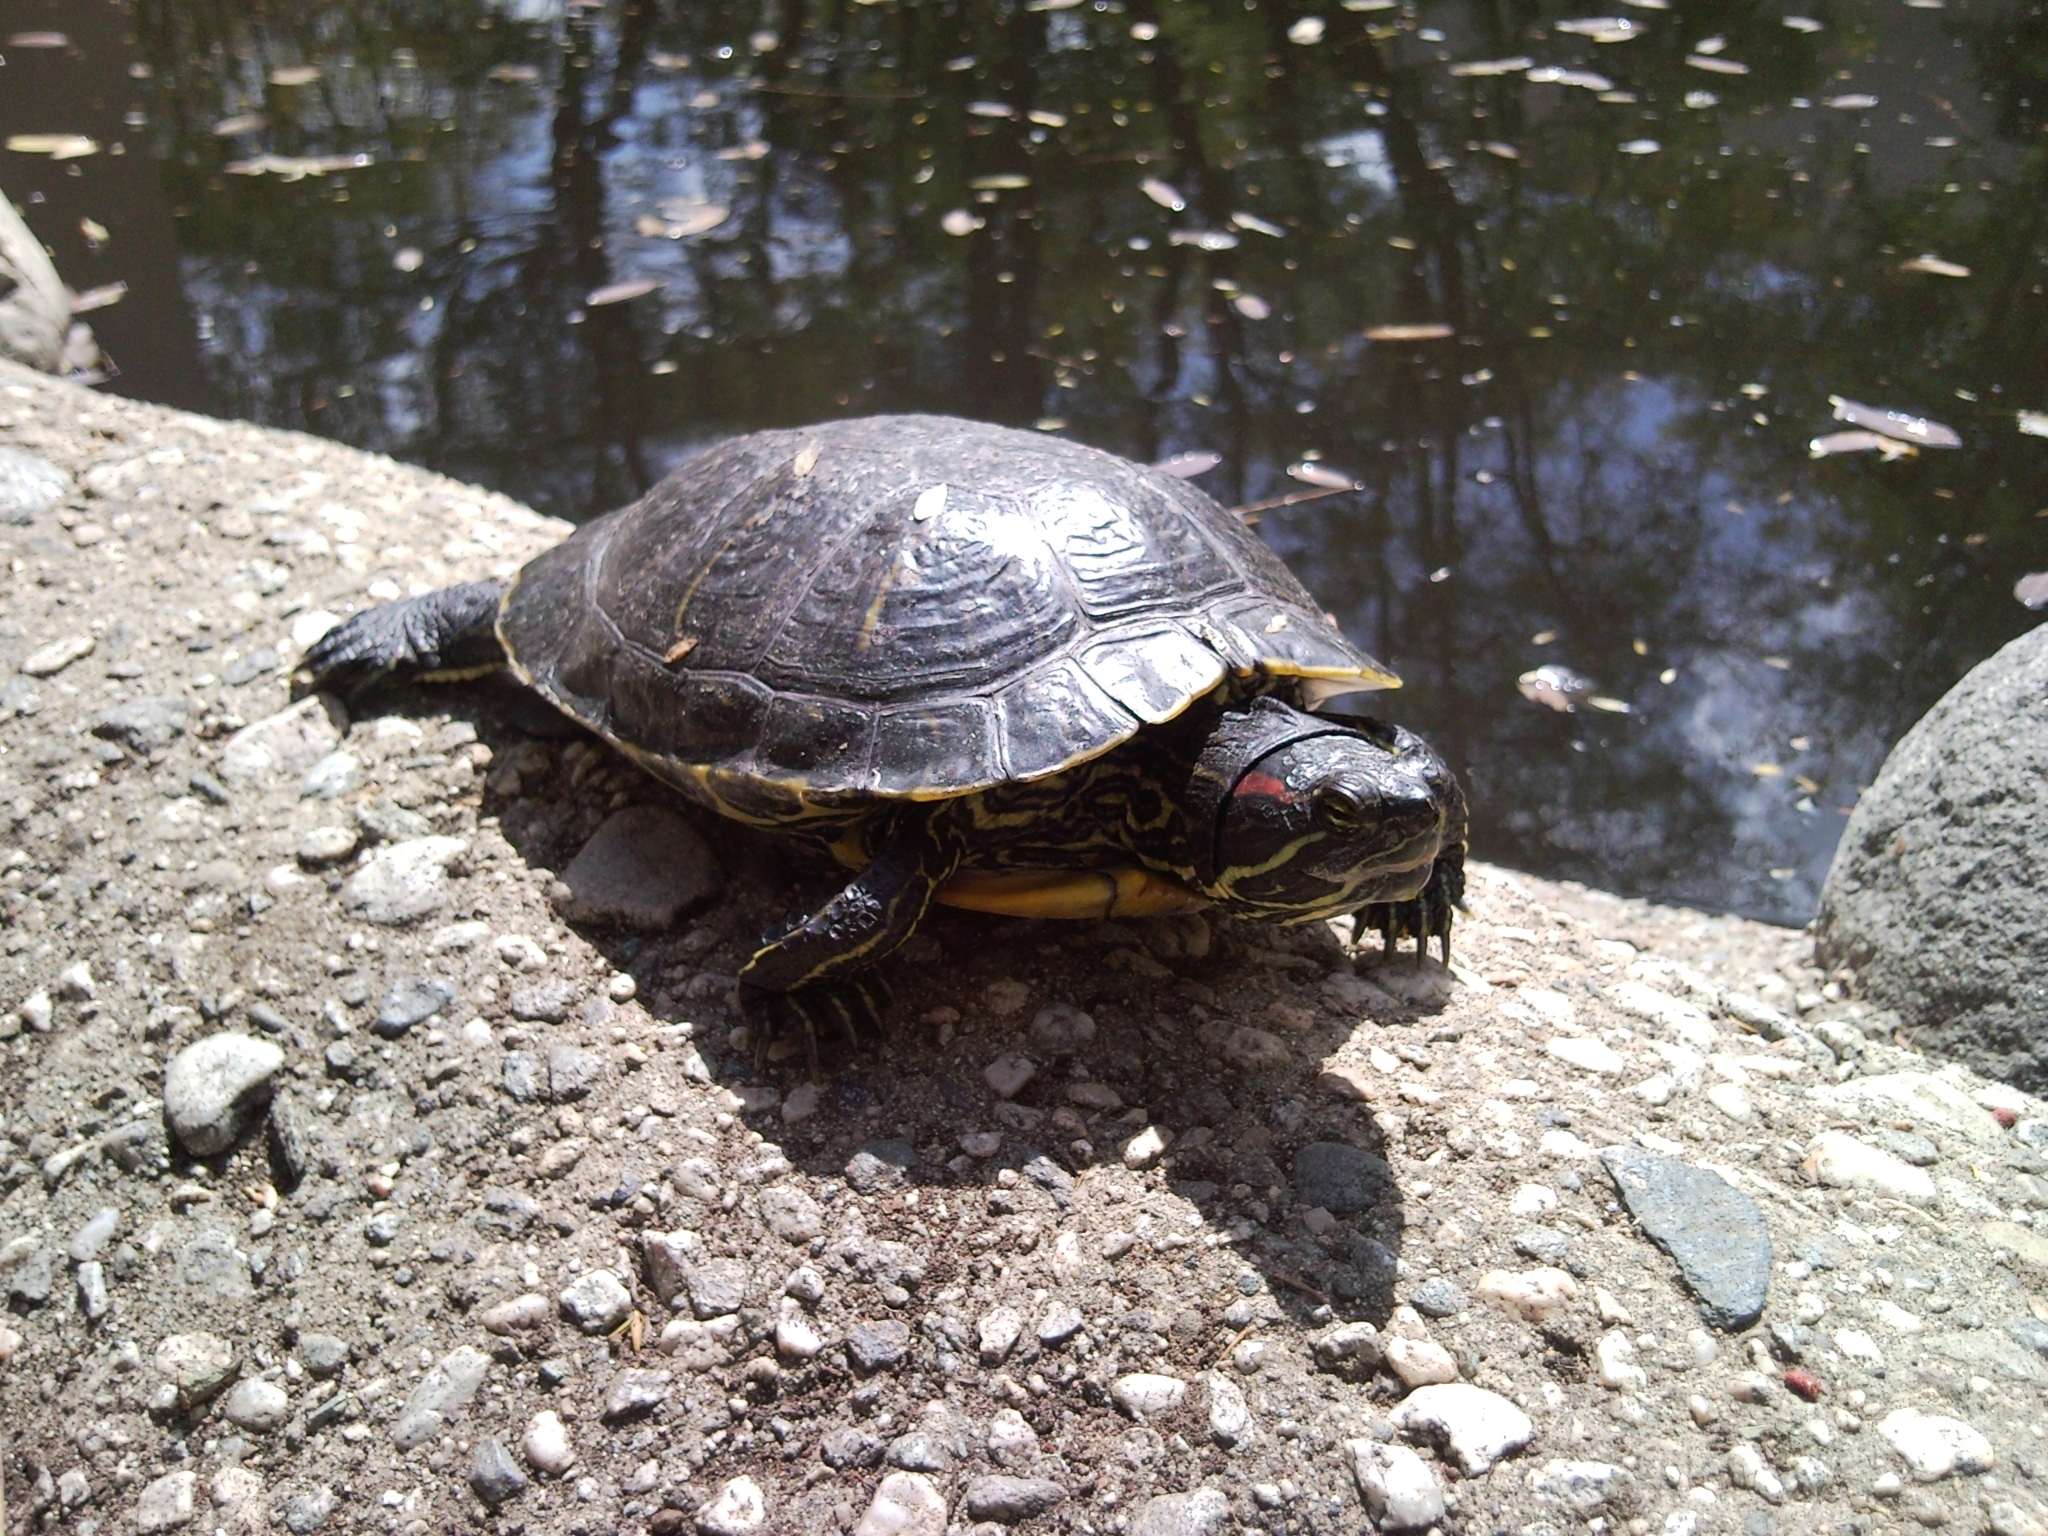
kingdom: Animalia
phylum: Chordata
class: Testudines
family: Emydidae
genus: Trachemys
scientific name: Trachemys scripta
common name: Slider
